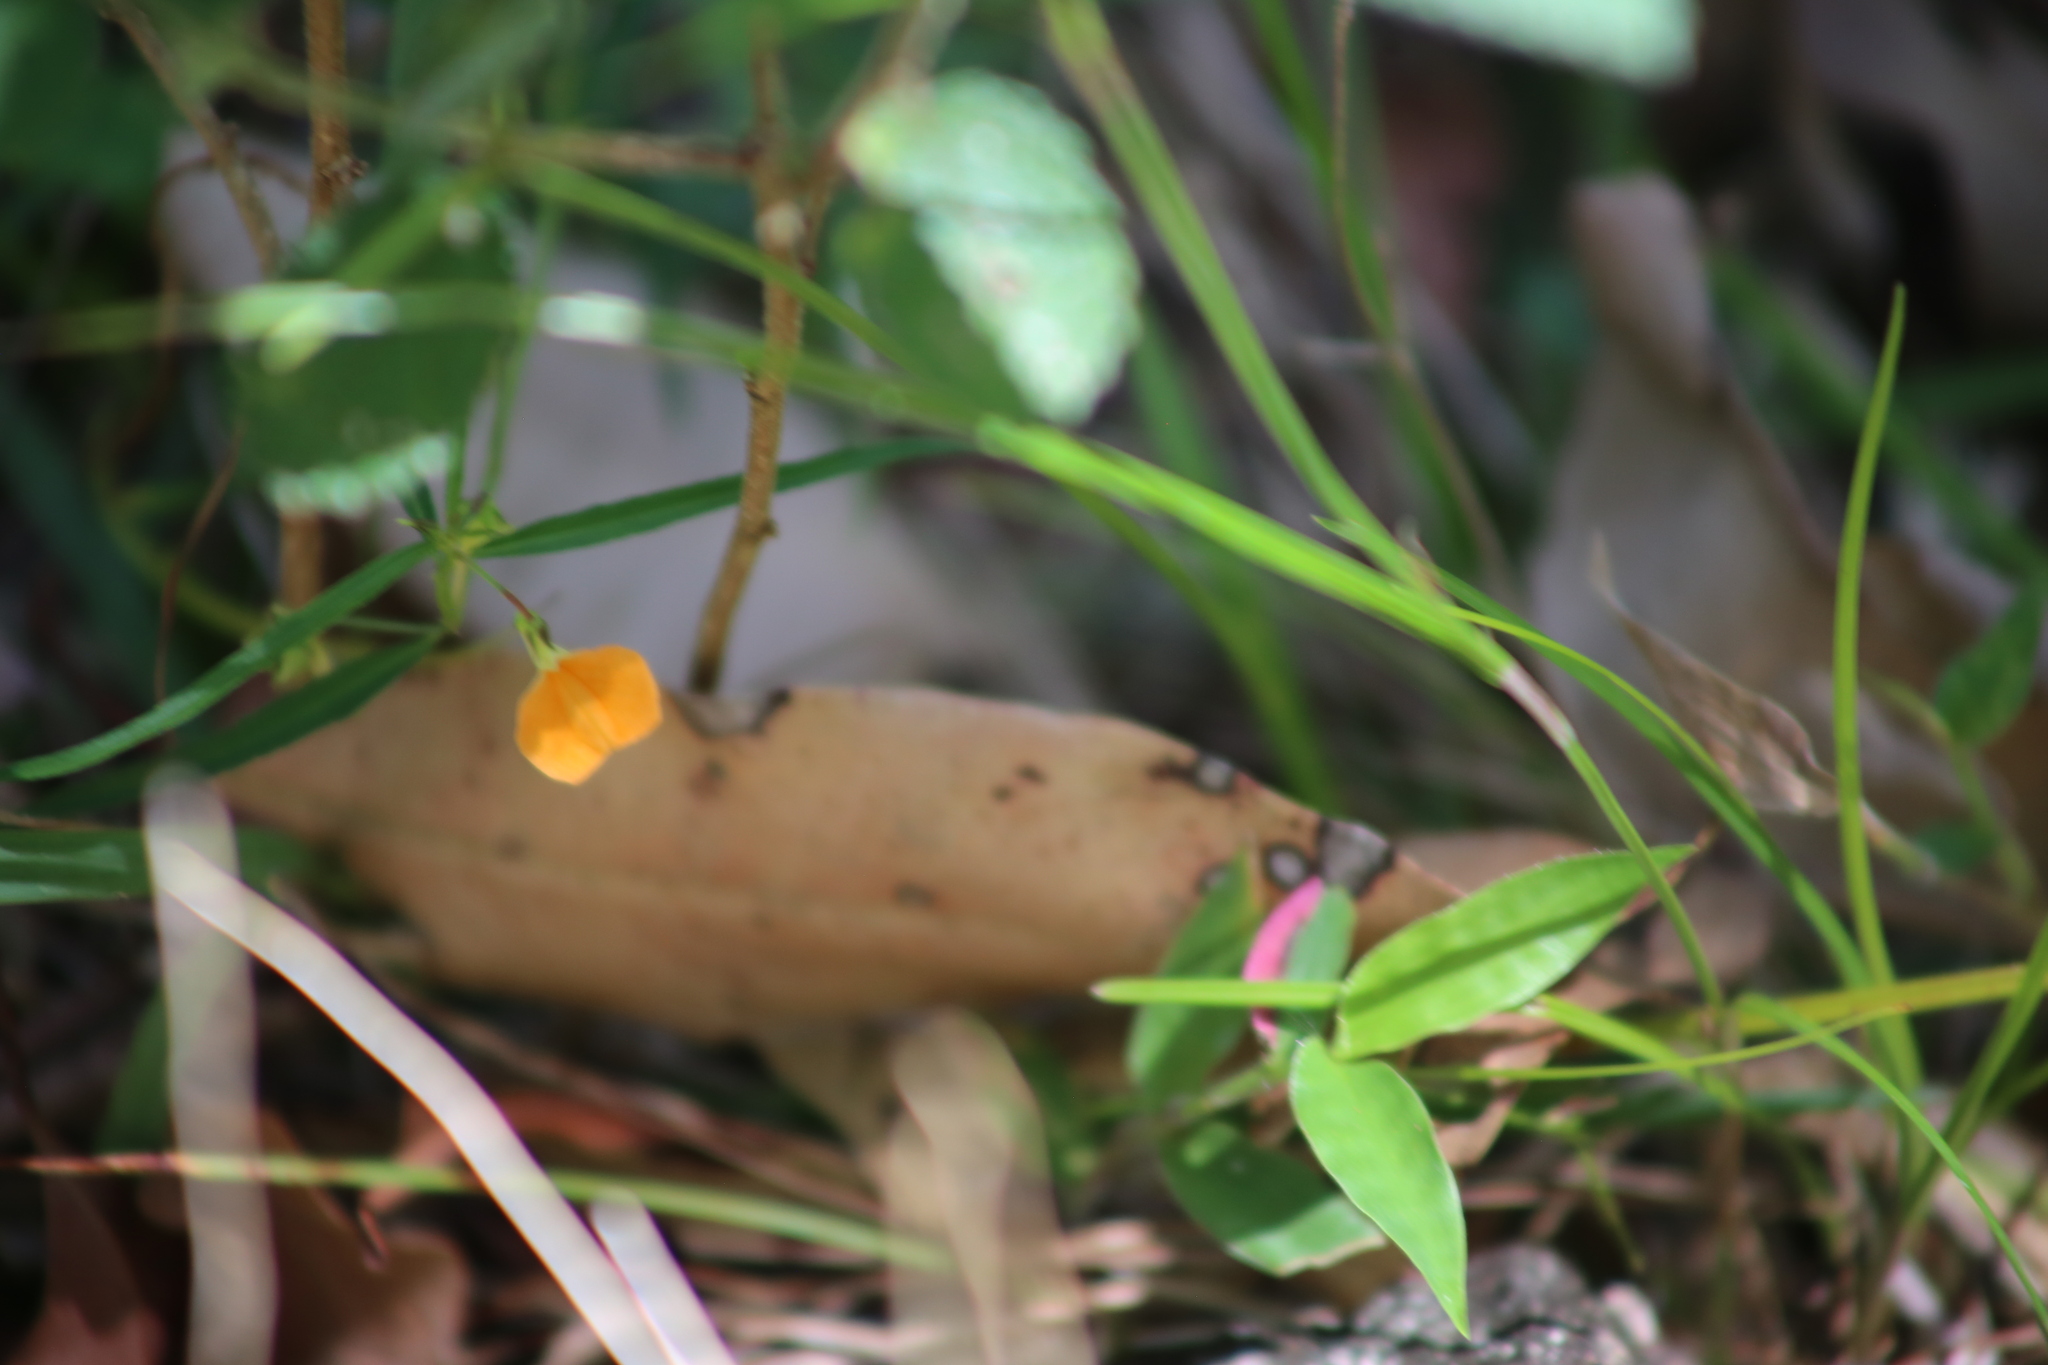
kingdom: Plantae
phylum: Tracheophyta
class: Magnoliopsida
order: Malpighiales
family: Violaceae
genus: Pigea
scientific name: Pigea stellarioides
